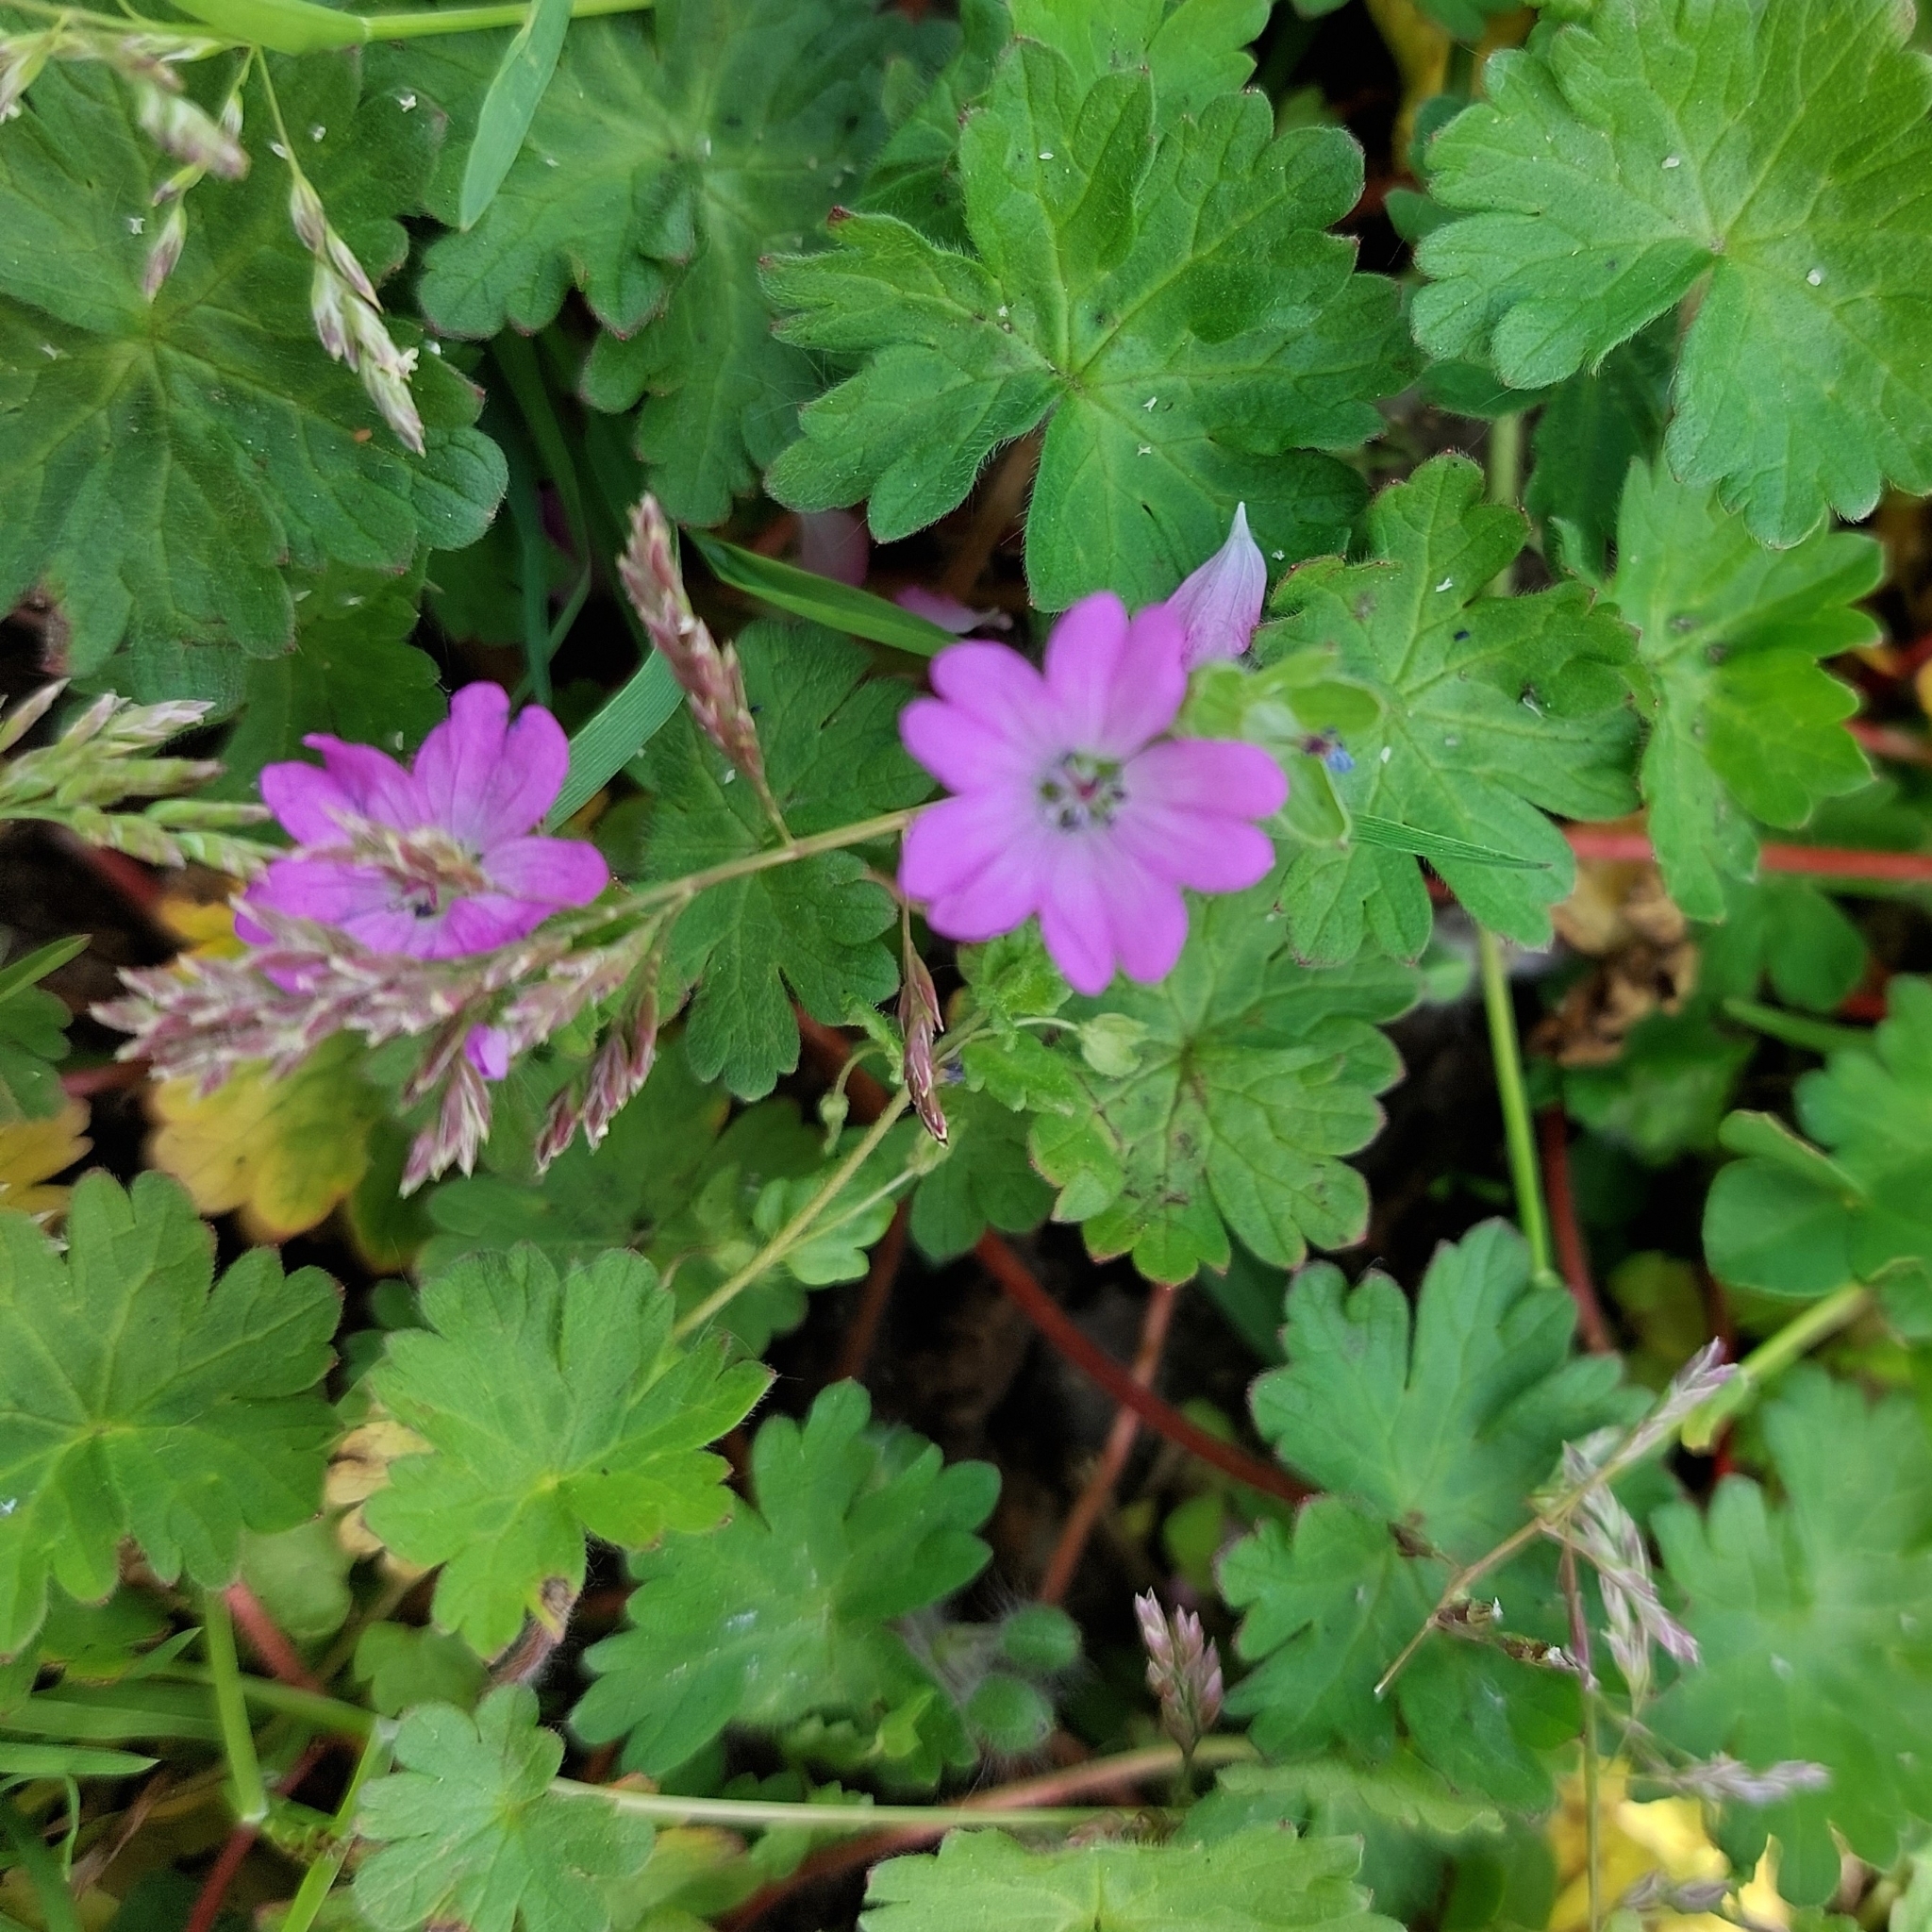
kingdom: Plantae
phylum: Tracheophyta
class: Magnoliopsida
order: Geraniales
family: Geraniaceae
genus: Geranium
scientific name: Geranium molle
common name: Dove's-foot crane's-bill
